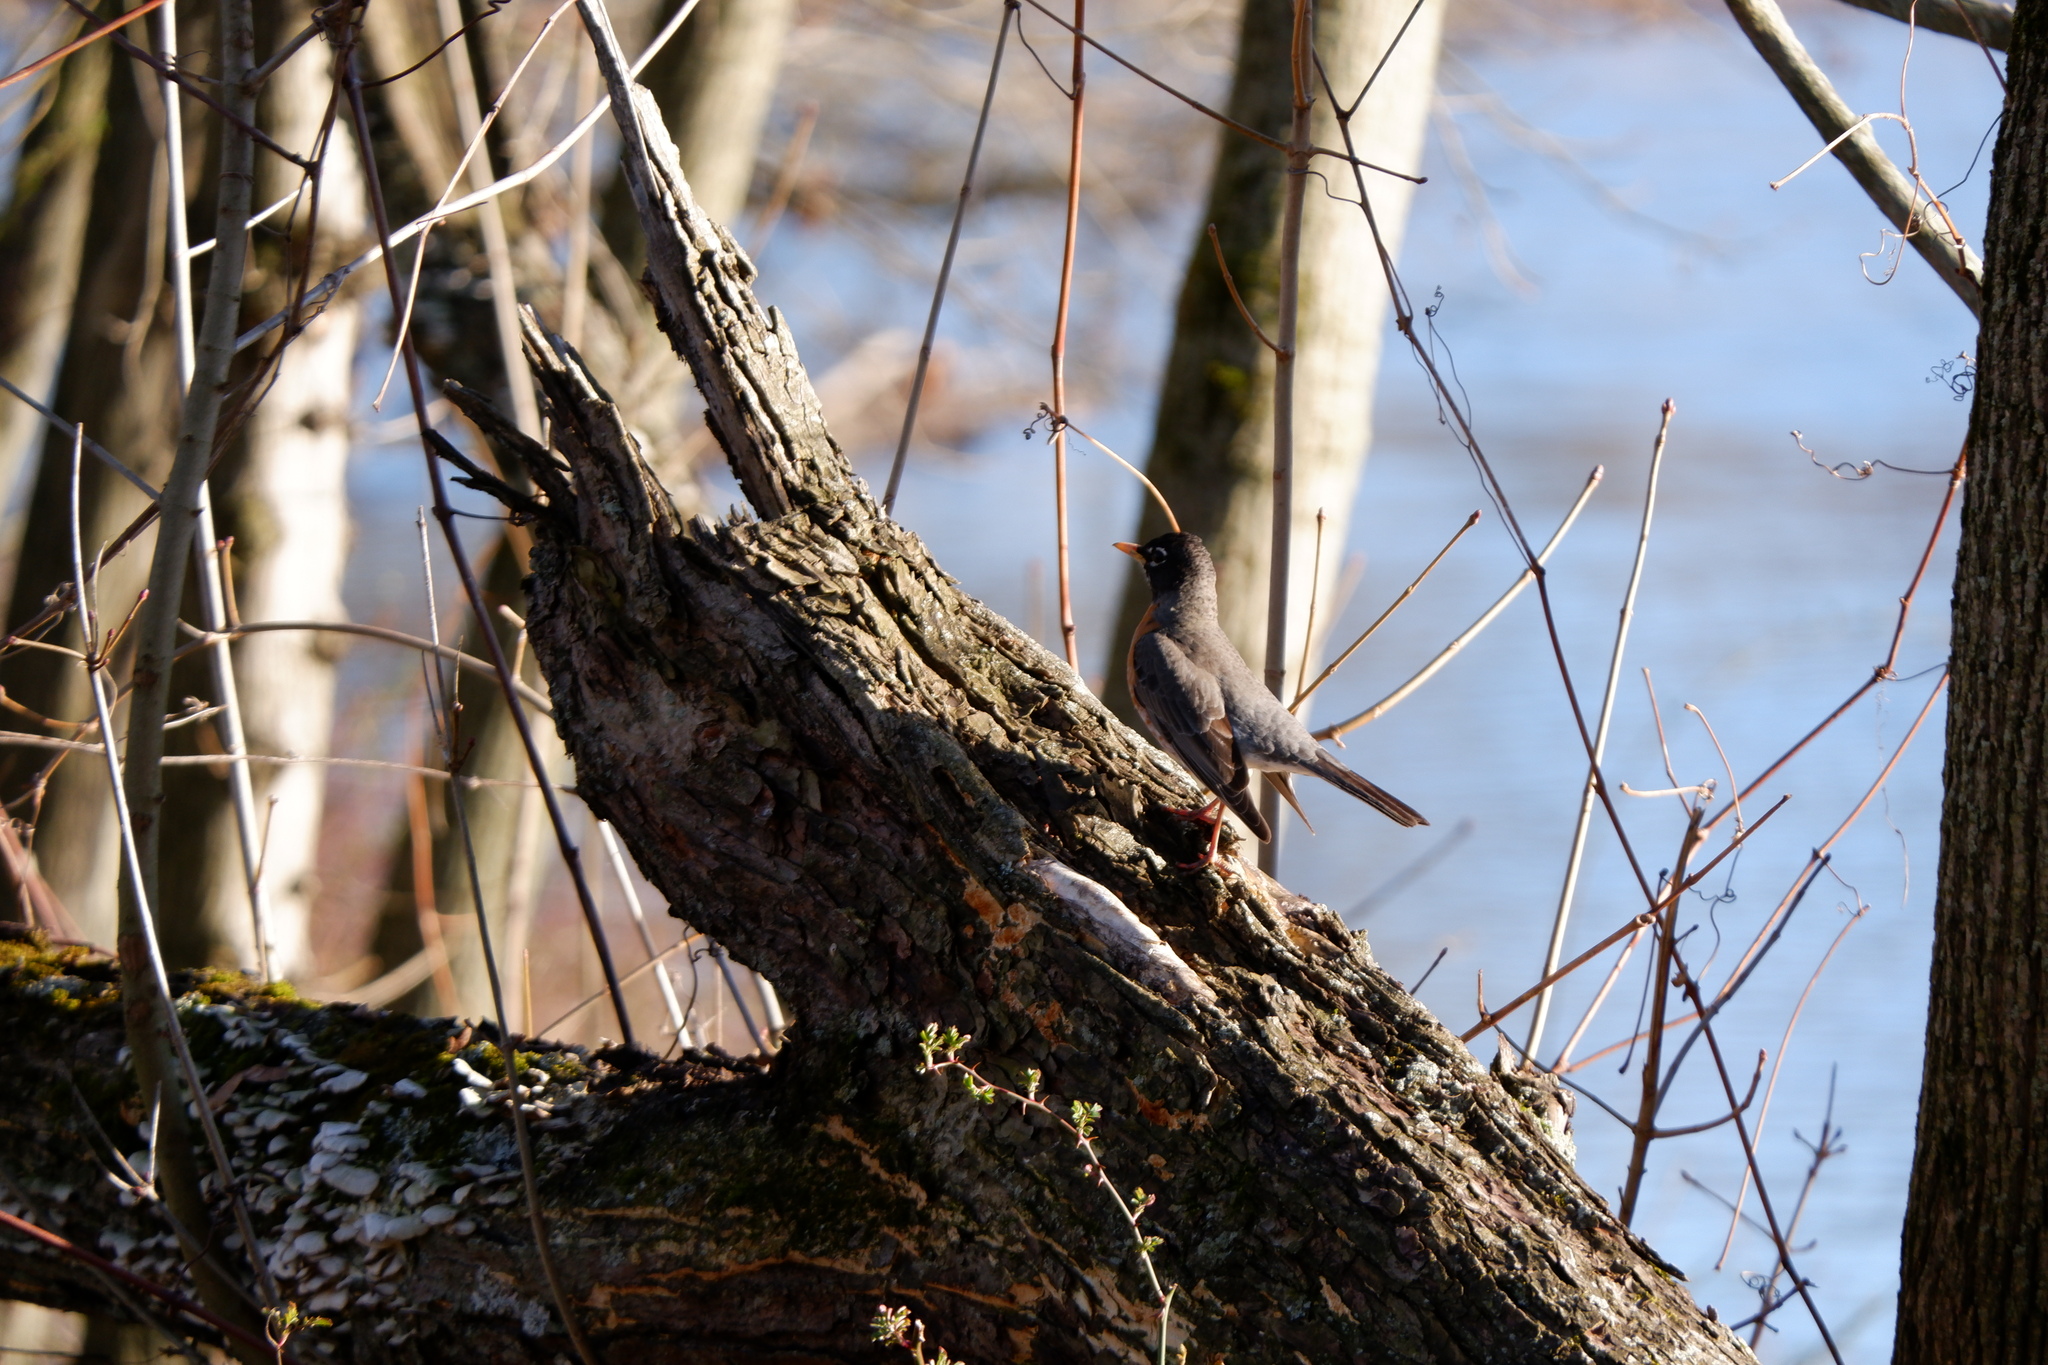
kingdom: Animalia
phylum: Chordata
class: Aves
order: Passeriformes
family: Turdidae
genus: Turdus
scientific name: Turdus migratorius
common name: American robin
